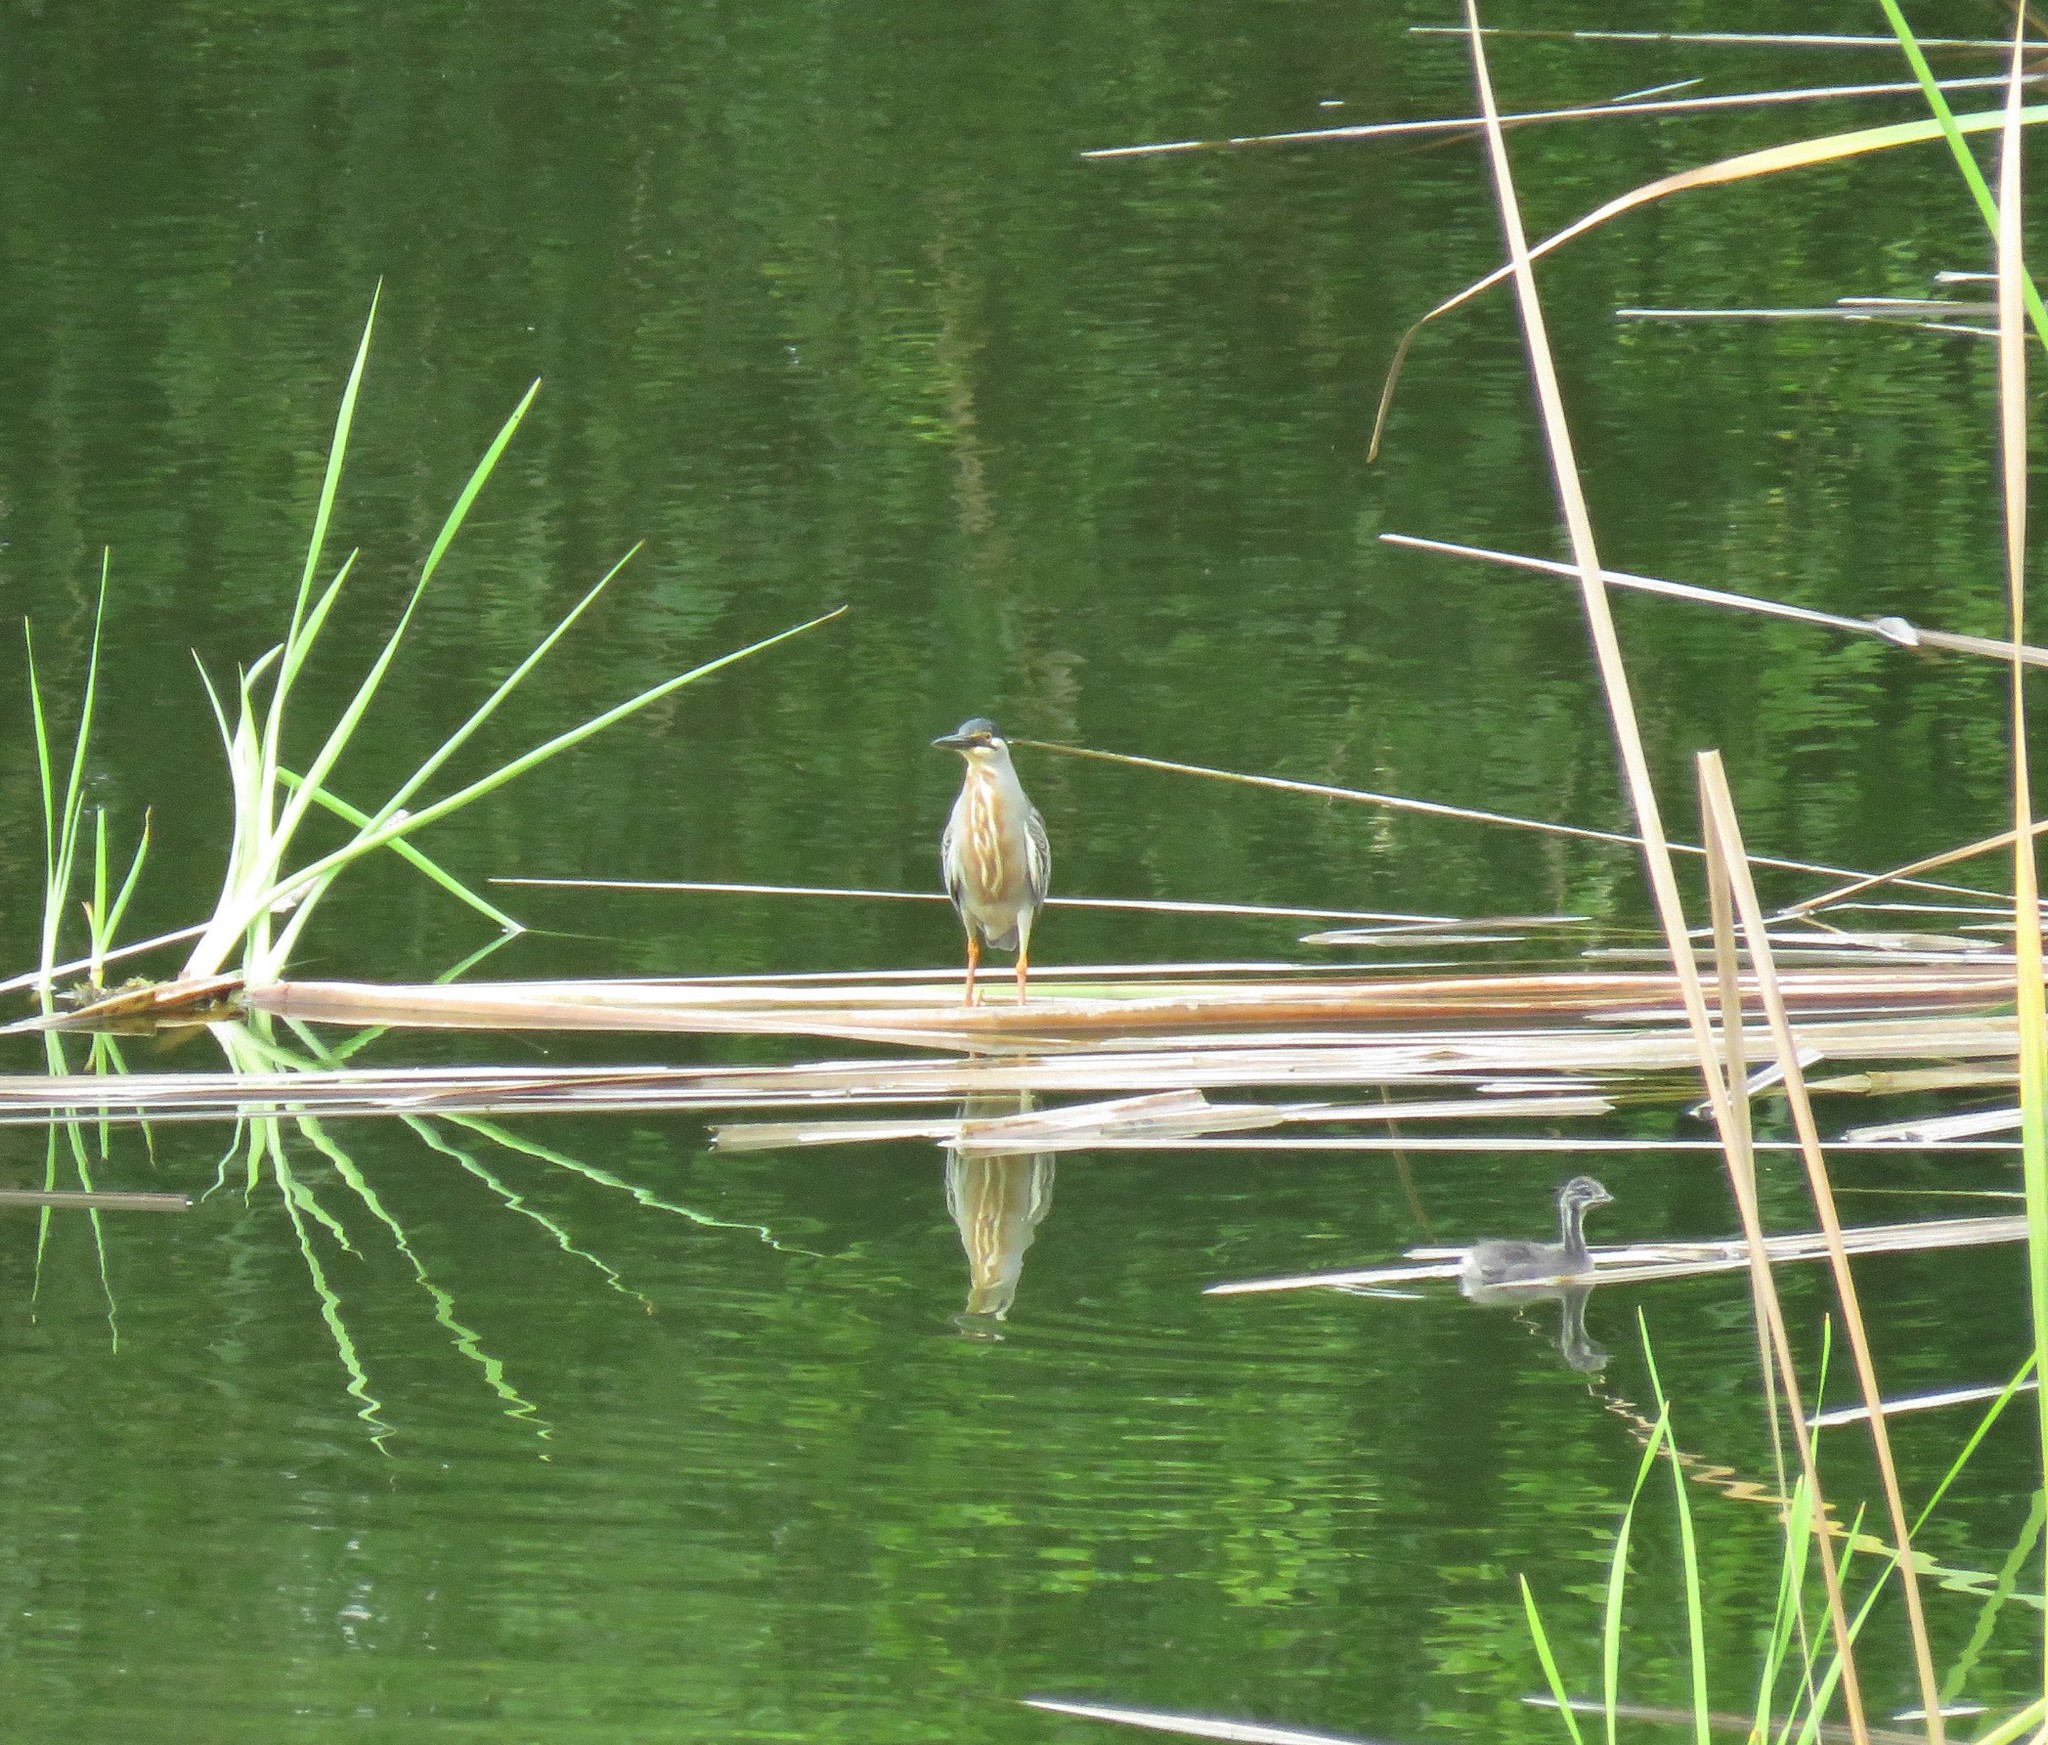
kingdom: Animalia
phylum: Chordata
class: Aves
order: Pelecaniformes
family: Ardeidae
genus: Butorides
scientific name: Butorides striata
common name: Striated heron
